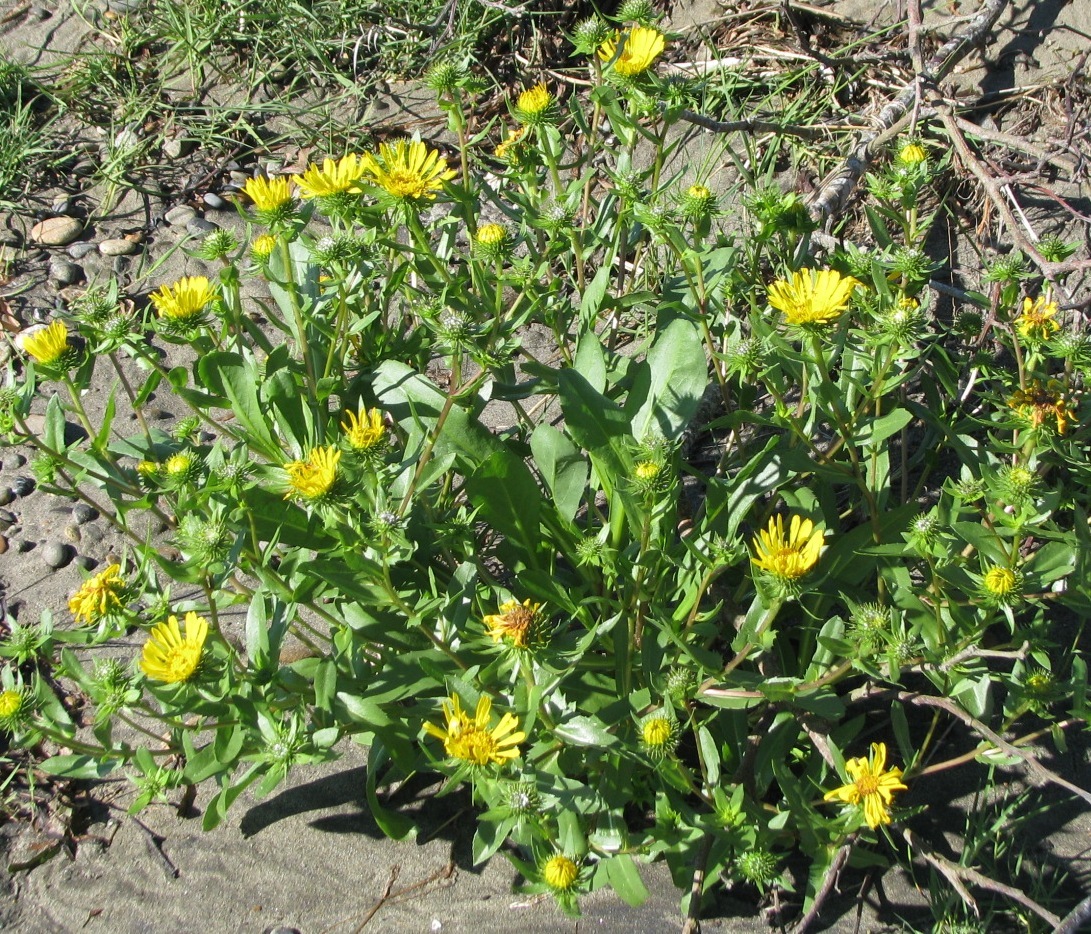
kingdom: Plantae
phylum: Tracheophyta
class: Magnoliopsida
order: Asterales
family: Asteraceae
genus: Grindelia
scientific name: Grindelia integrifolia
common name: Puget sound gumweed
